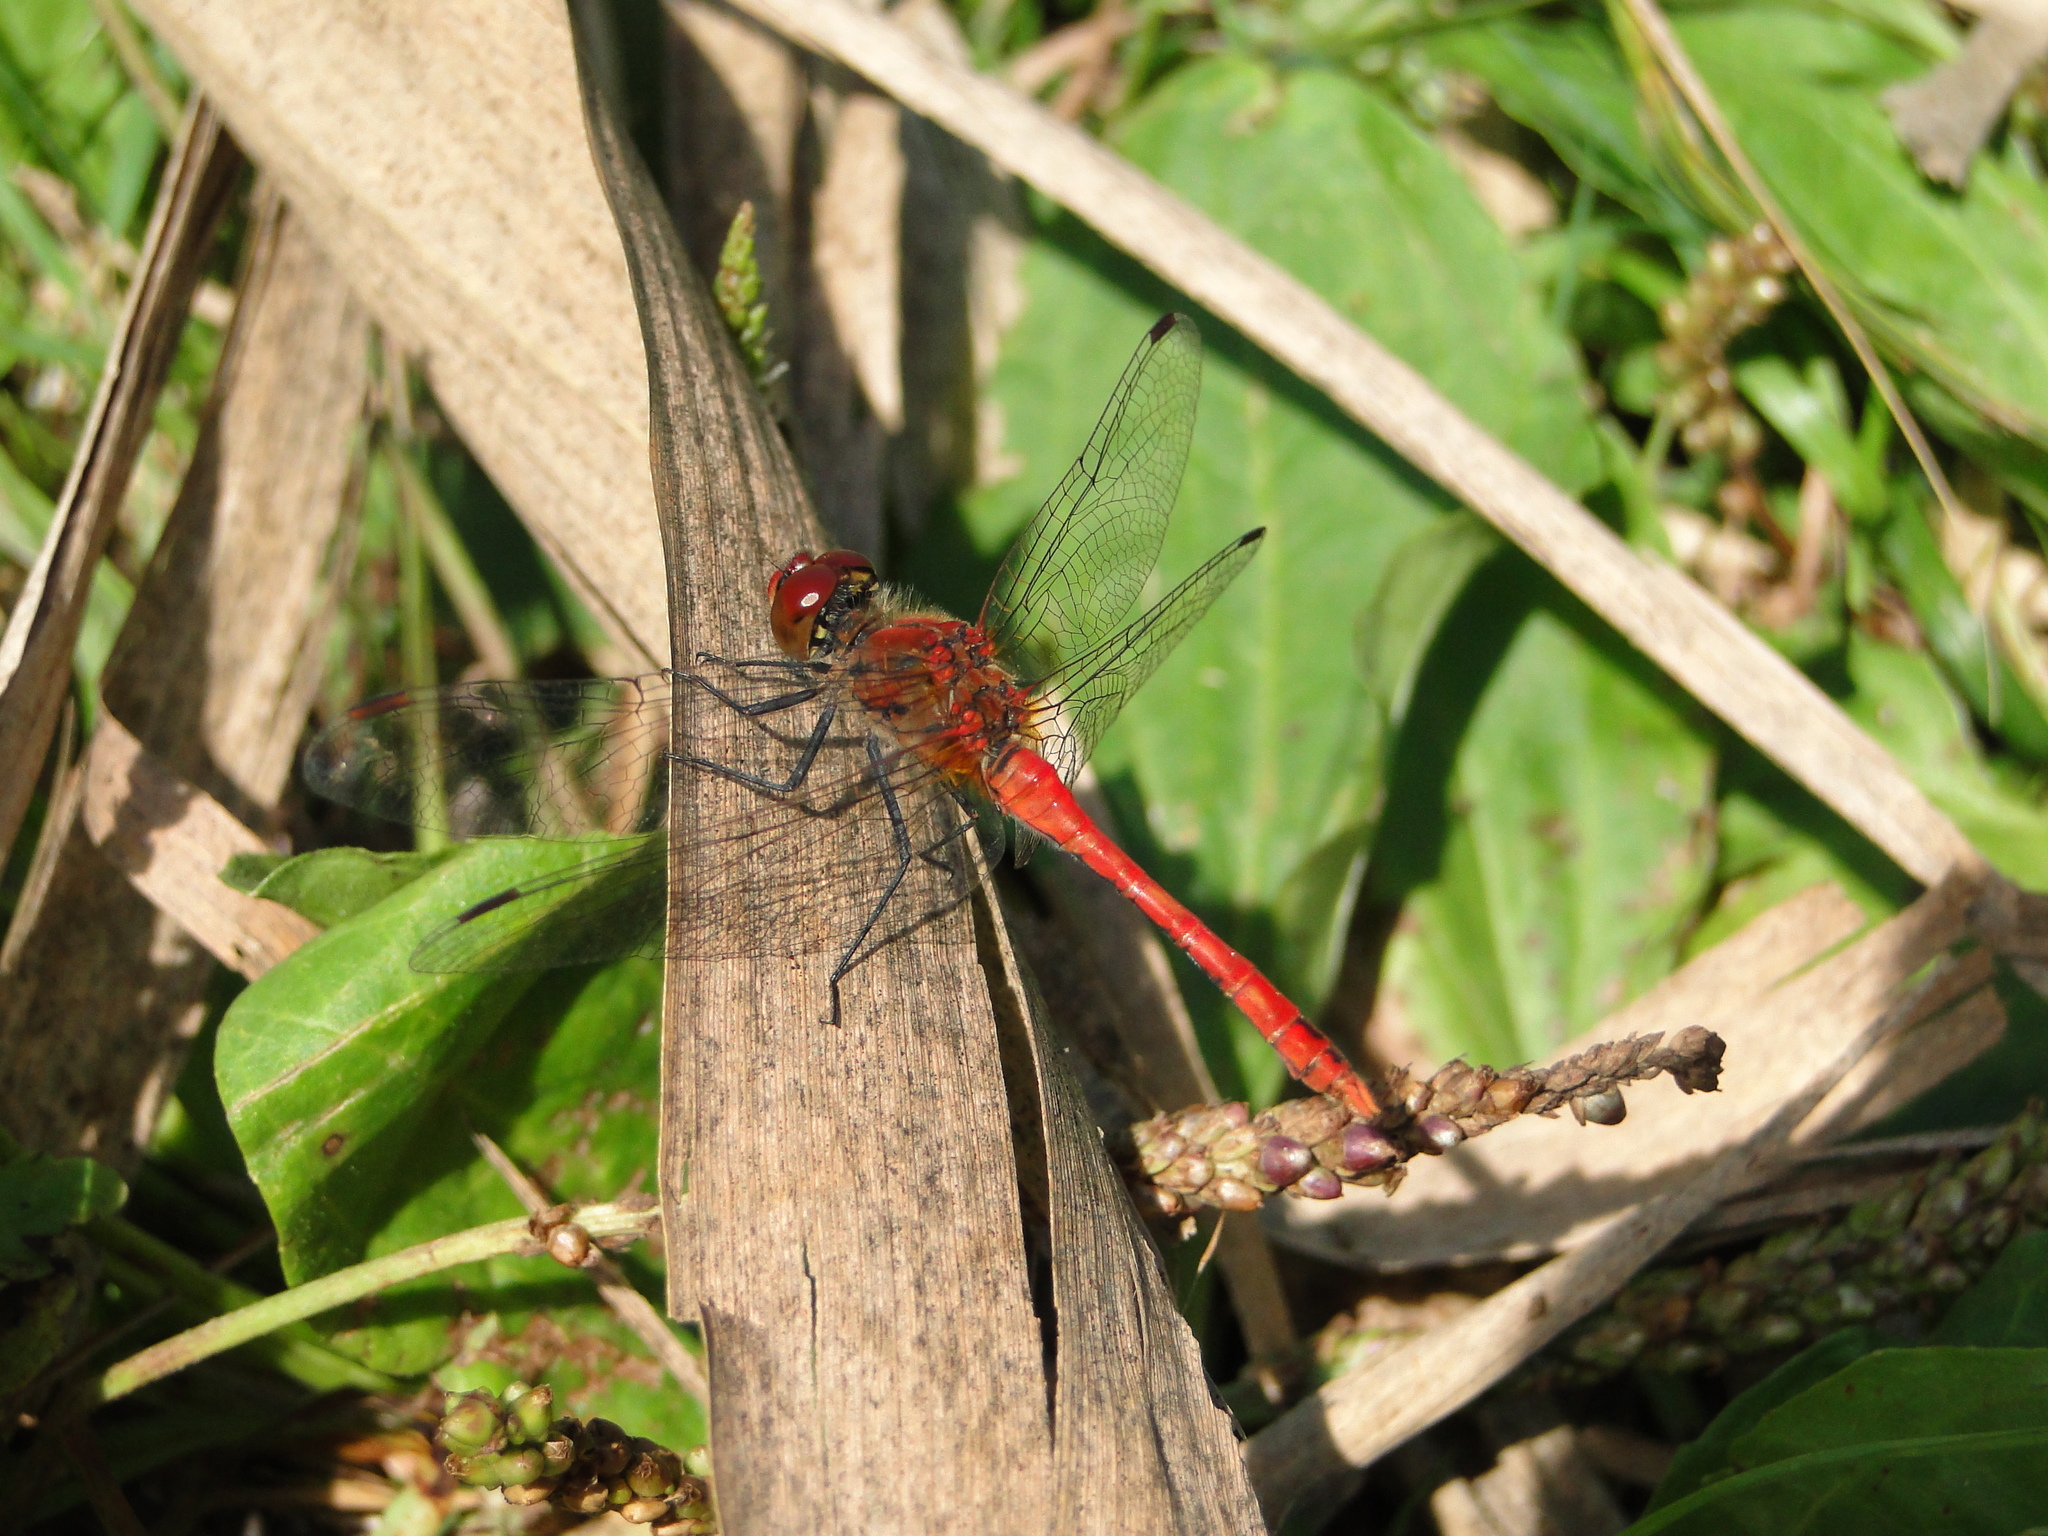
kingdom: Animalia
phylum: Arthropoda
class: Insecta
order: Odonata
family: Libellulidae
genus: Sympetrum
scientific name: Sympetrum sanguineum
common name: Ruddy darter
